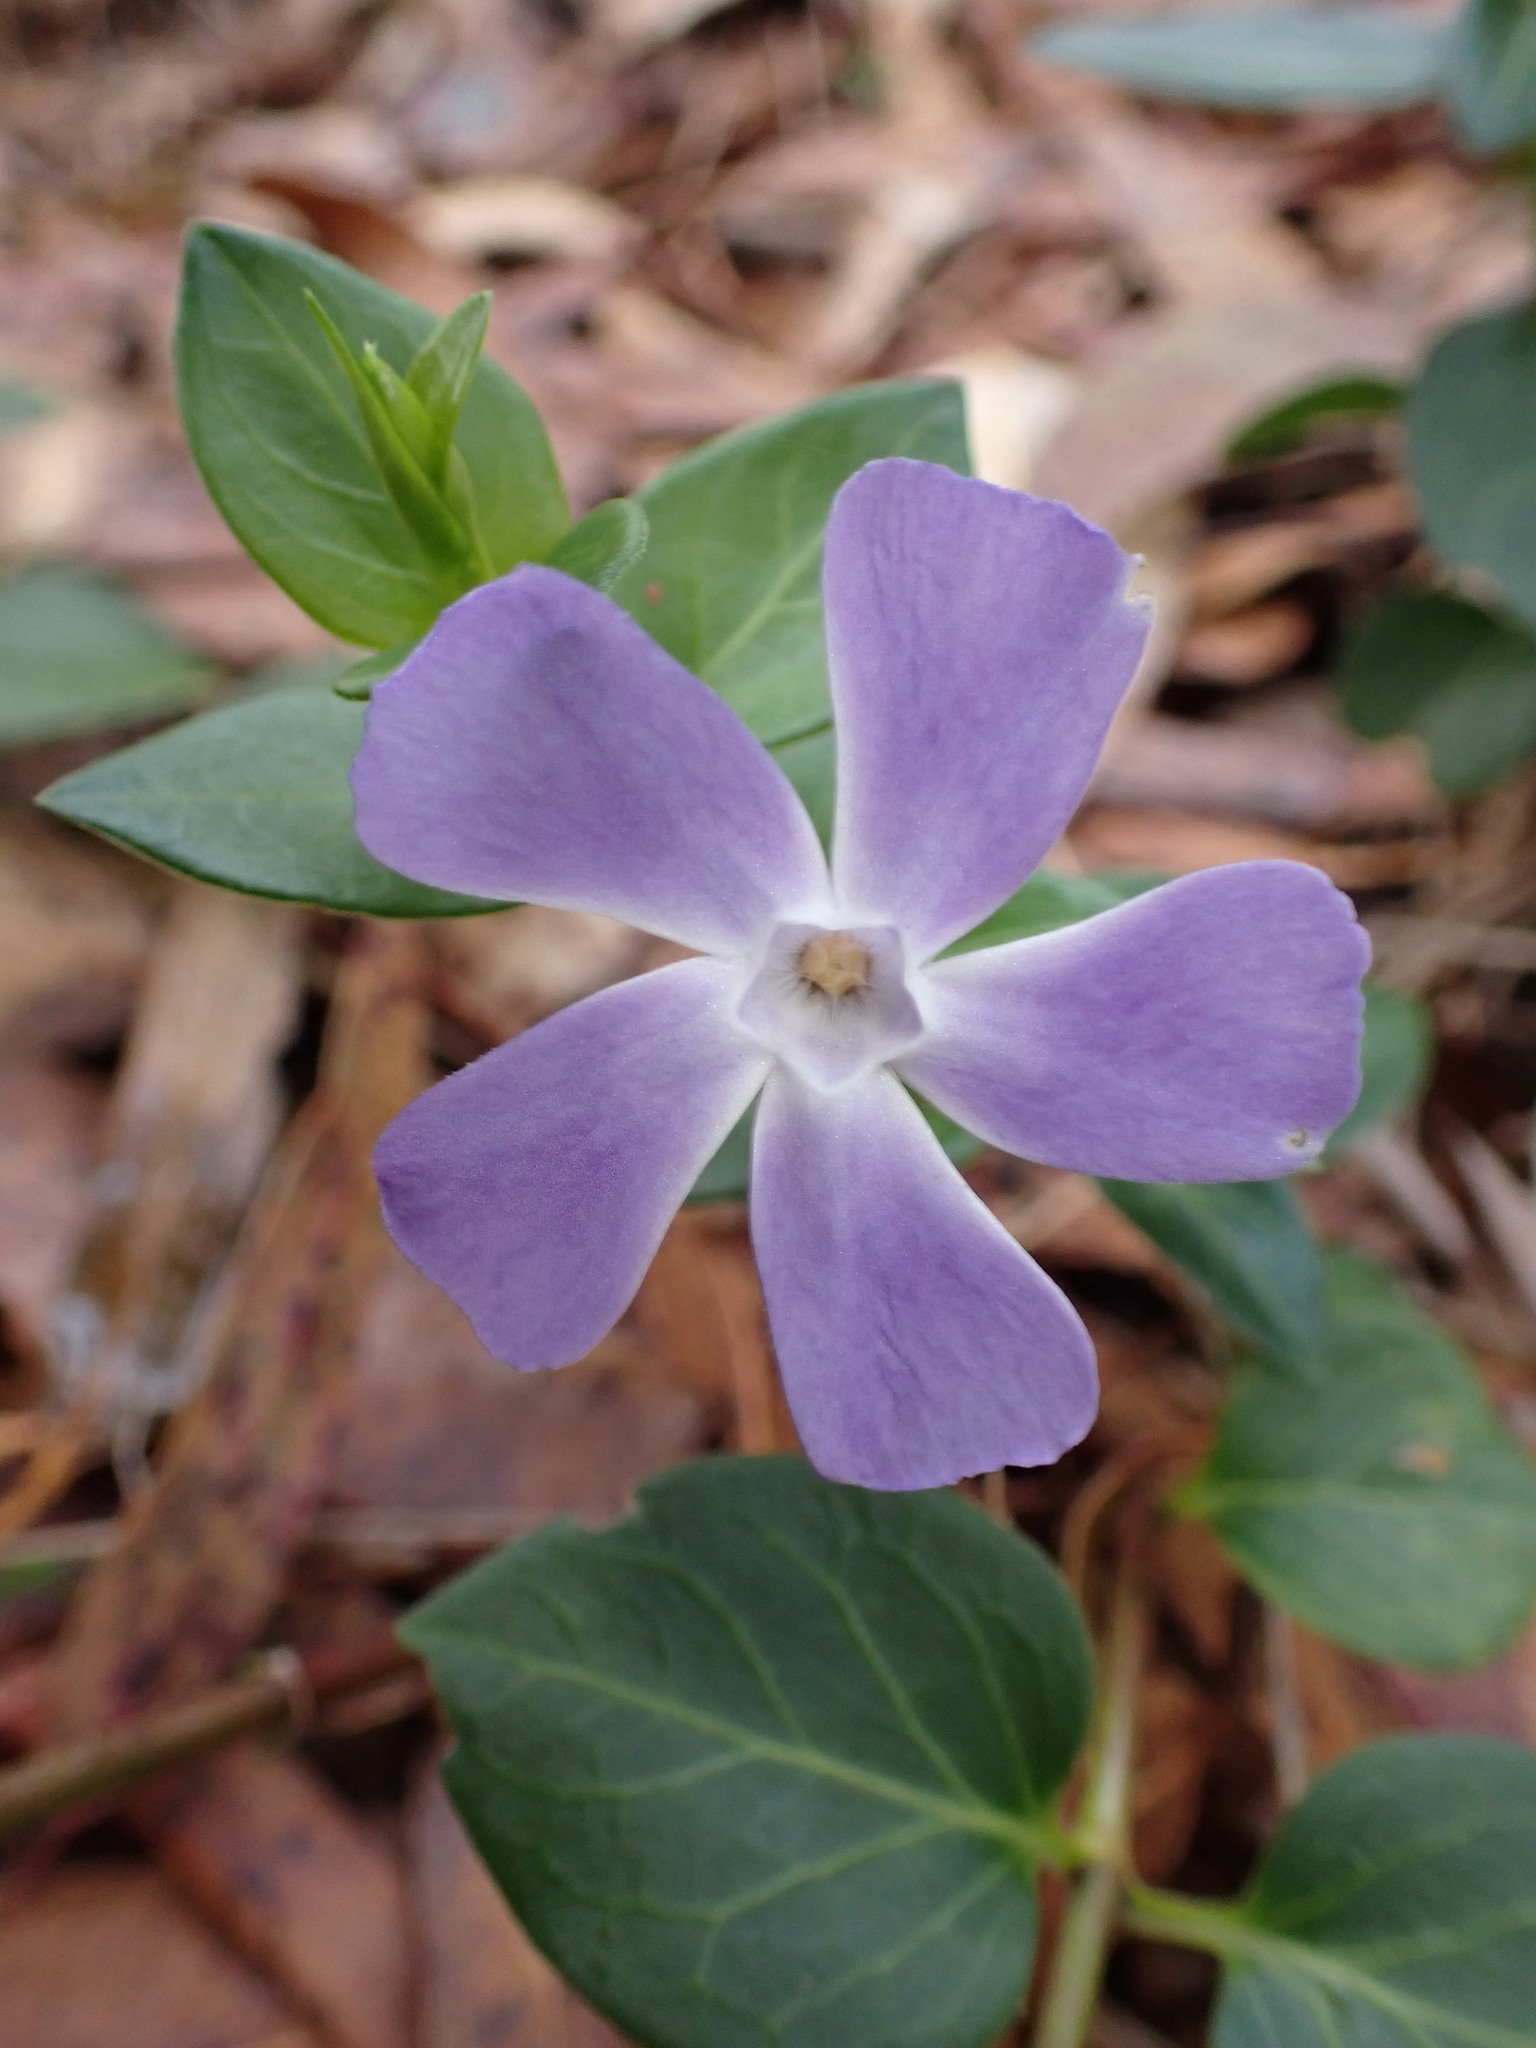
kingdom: Plantae
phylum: Tracheophyta
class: Magnoliopsida
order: Gentianales
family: Apocynaceae
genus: Vinca
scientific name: Vinca major
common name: Greater periwinkle
